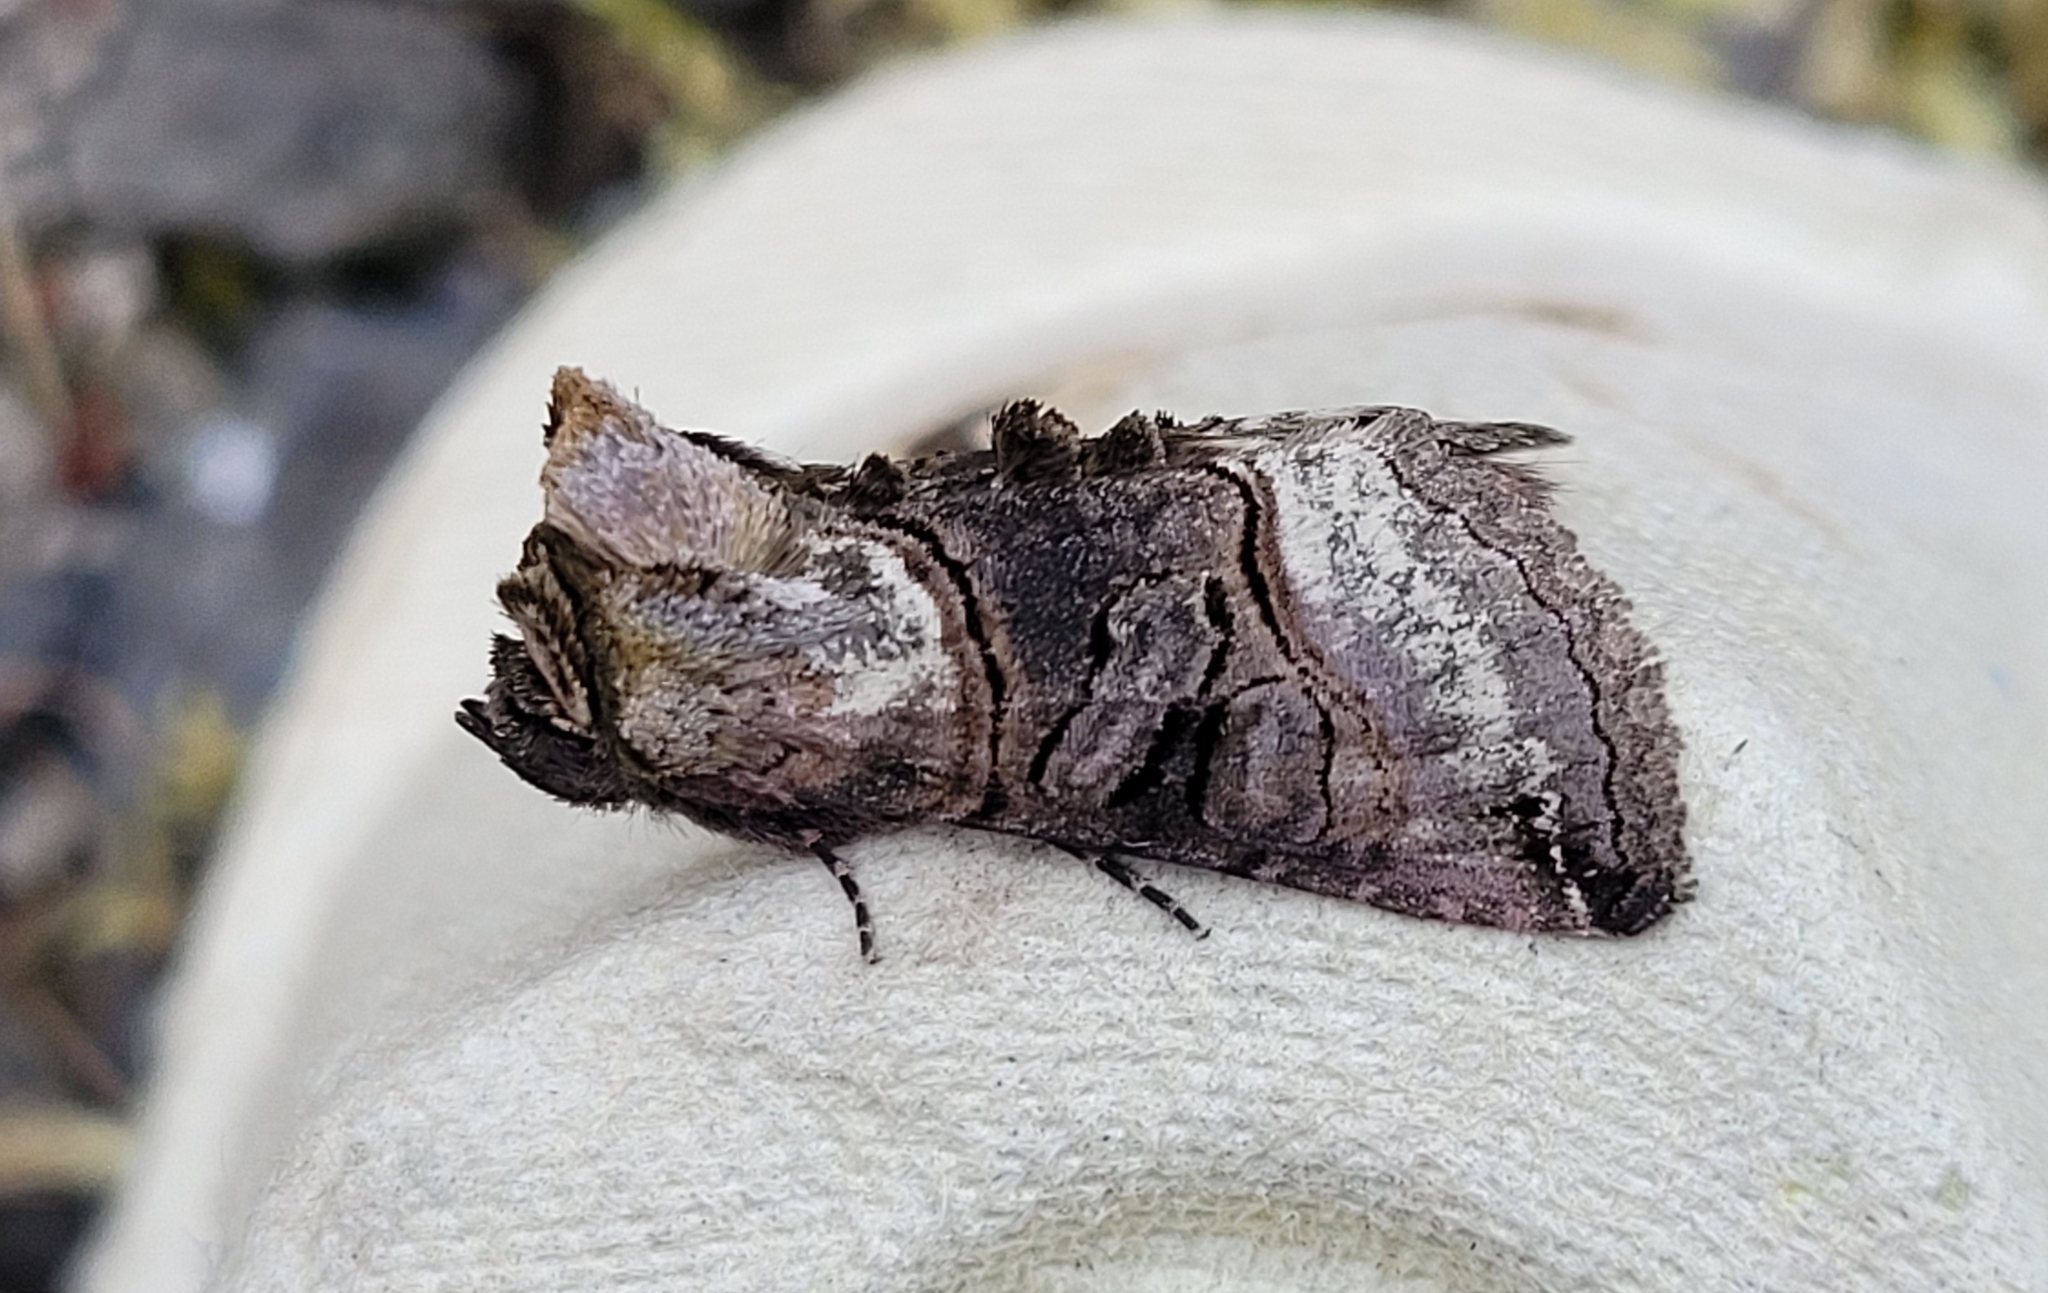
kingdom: Animalia
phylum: Arthropoda
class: Insecta
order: Lepidoptera
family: Noctuidae
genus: Abrostola
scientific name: Abrostola tripartita
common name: Spectacle
